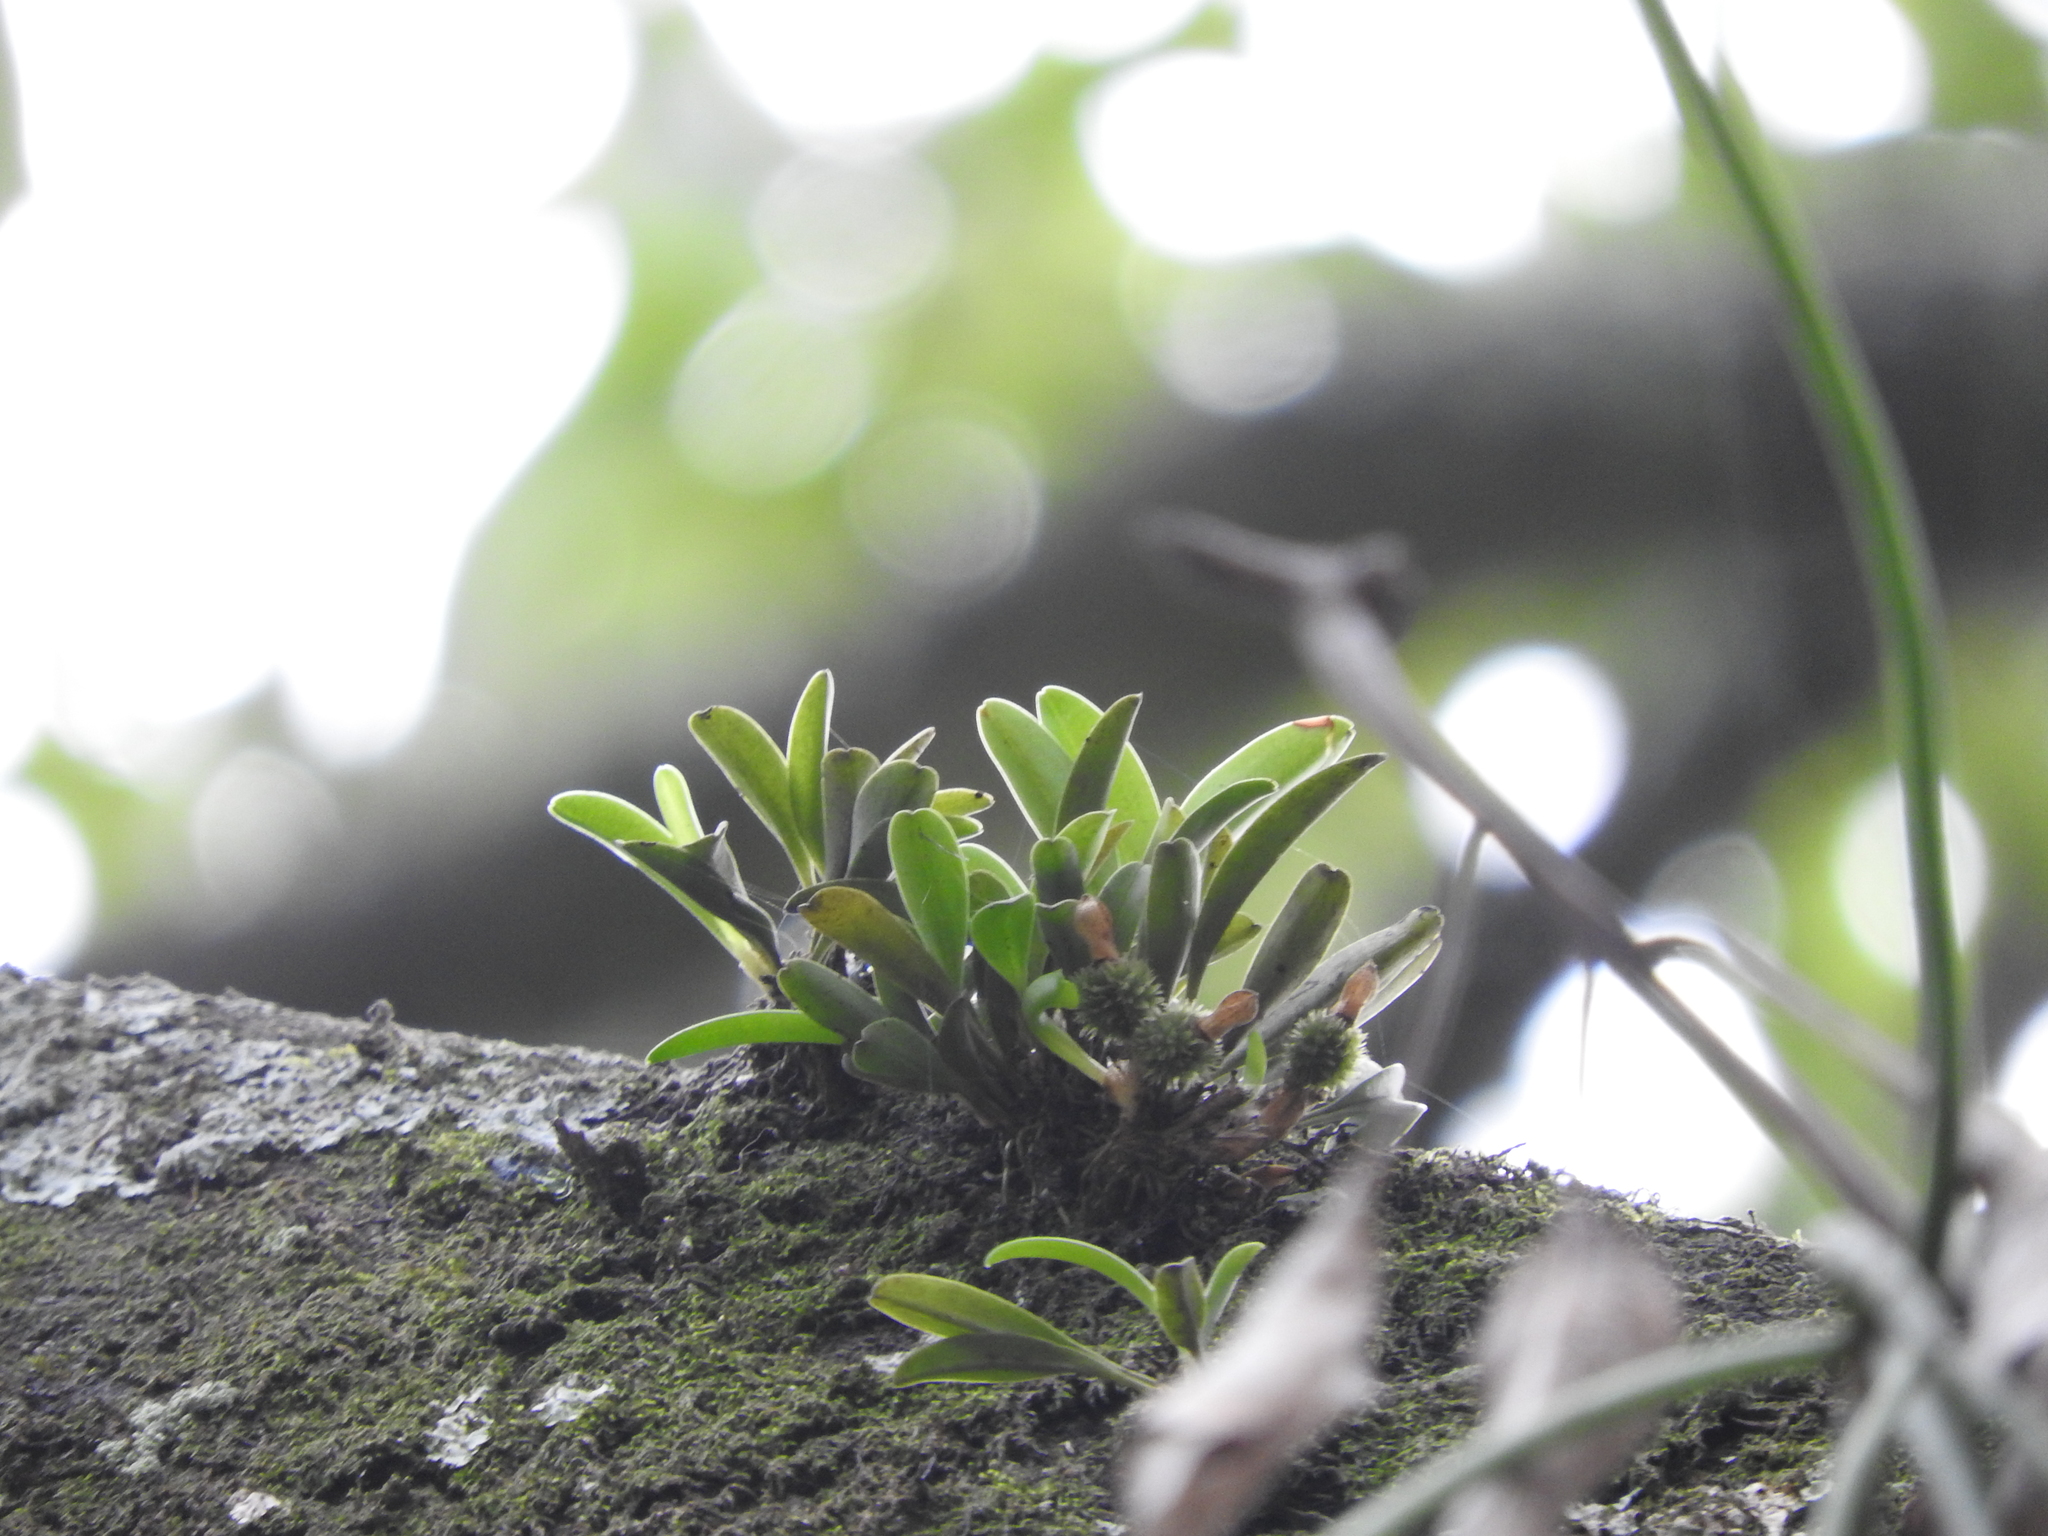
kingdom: Plantae
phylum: Tracheophyta
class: Liliopsida
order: Asparagales
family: Orchidaceae
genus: Specklinia
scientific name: Specklinia tribuloides
